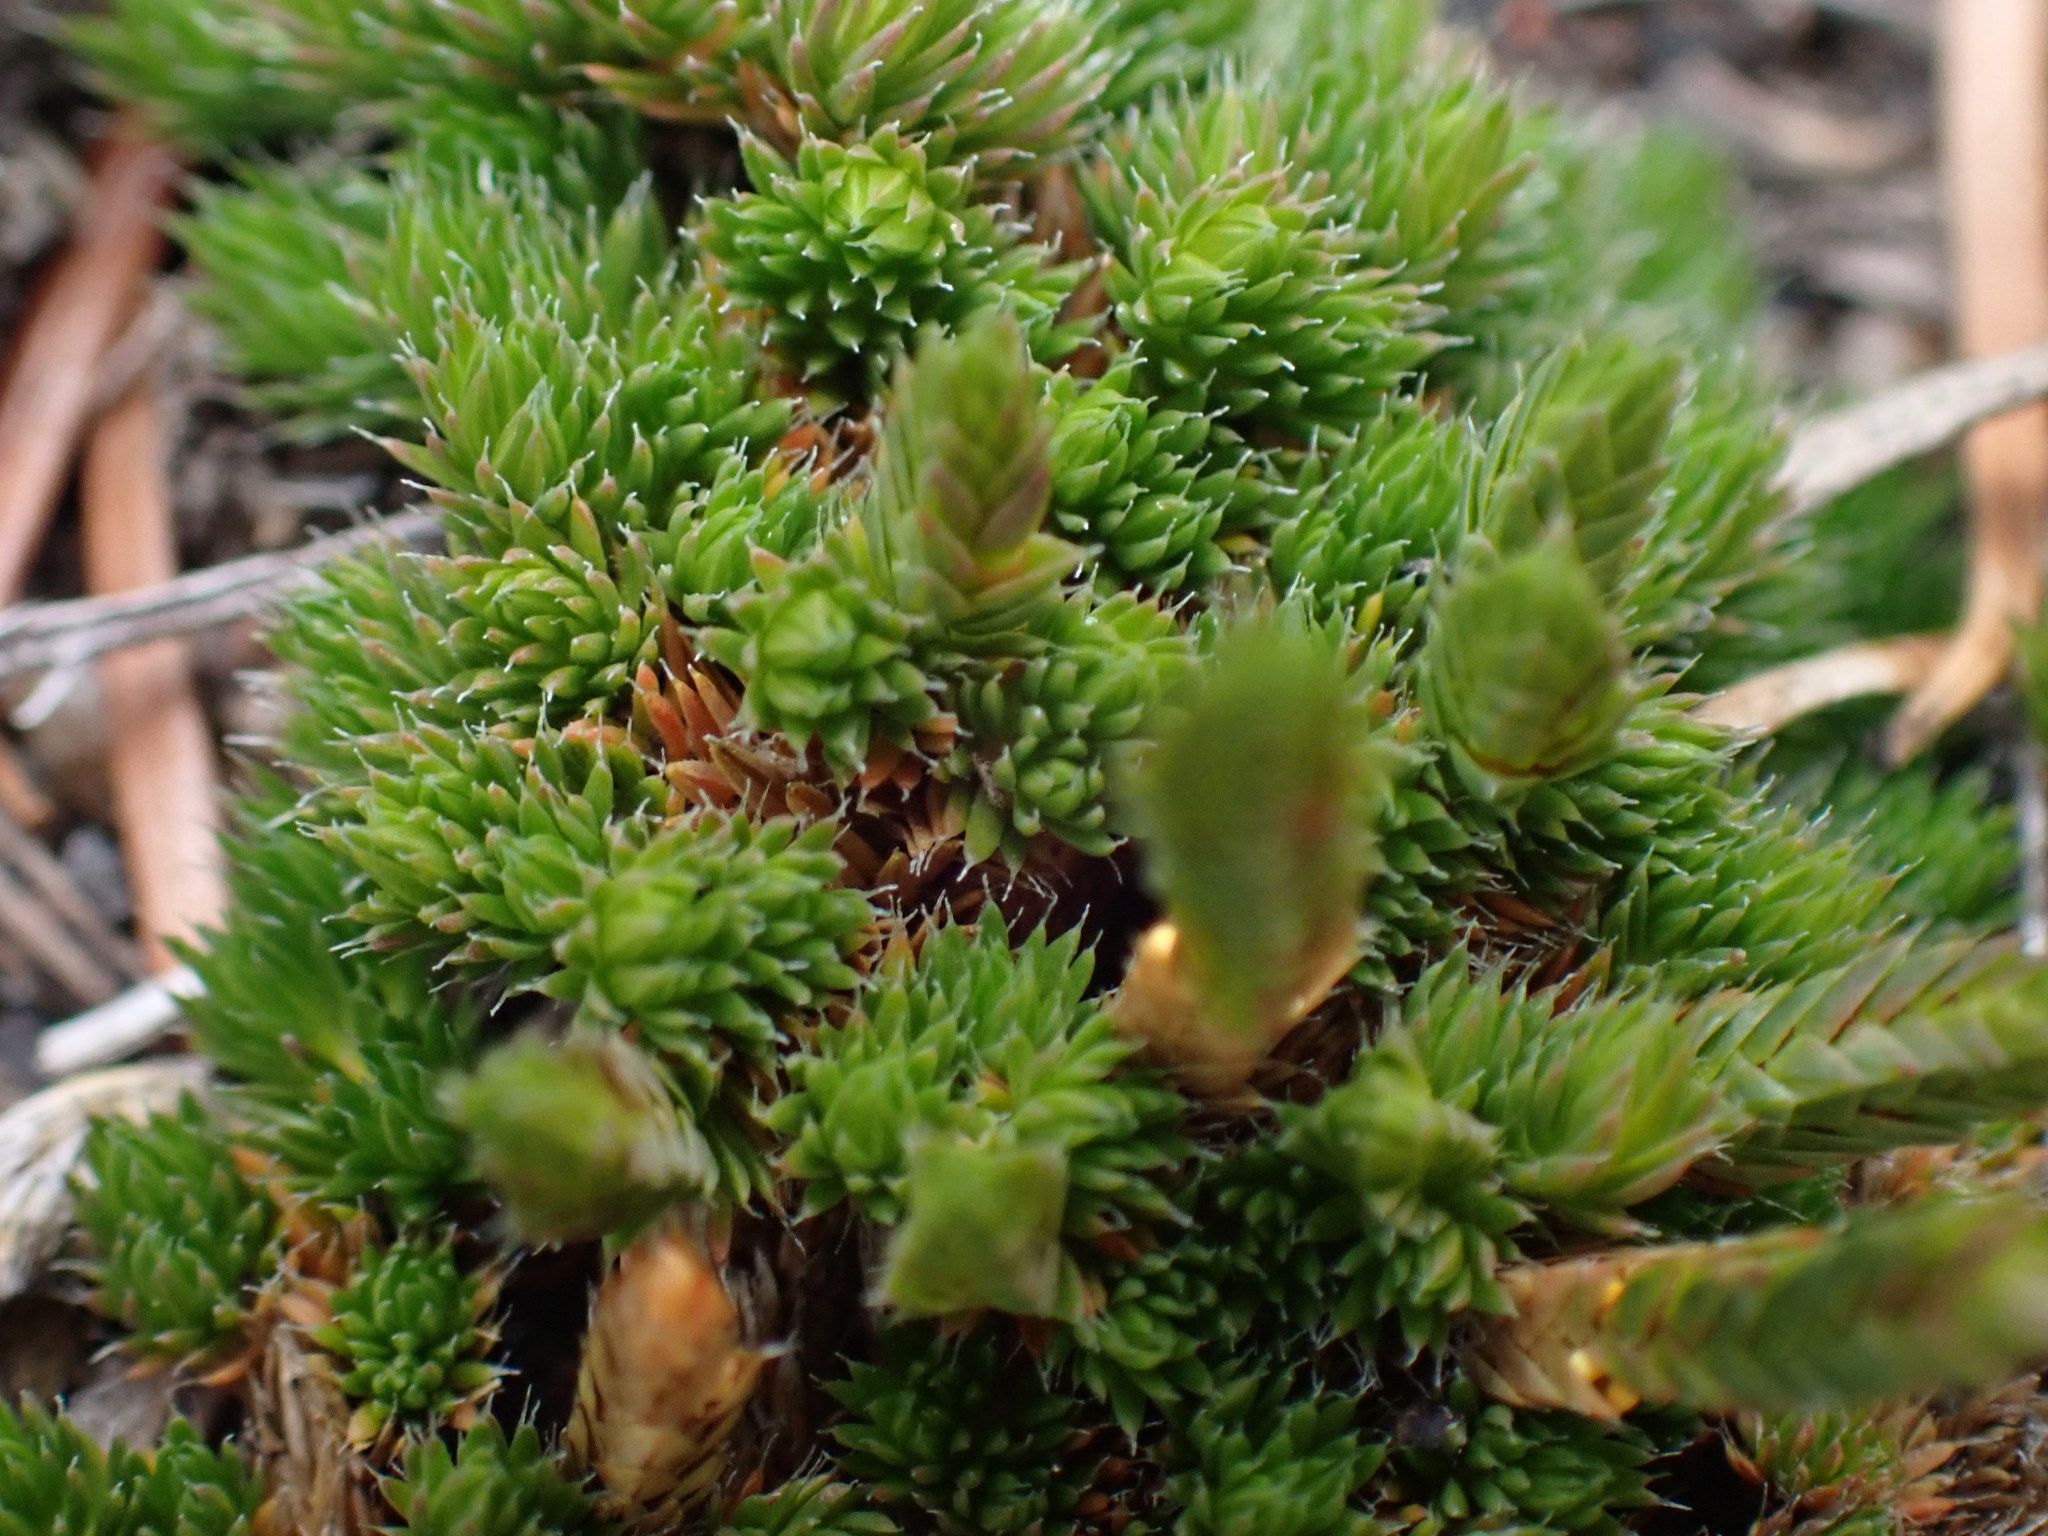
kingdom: Plantae
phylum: Tracheophyta
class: Lycopodiopsida
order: Selaginellales
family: Selaginellaceae
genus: Selaginella
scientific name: Selaginella densa
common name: Mountain spike-moss
